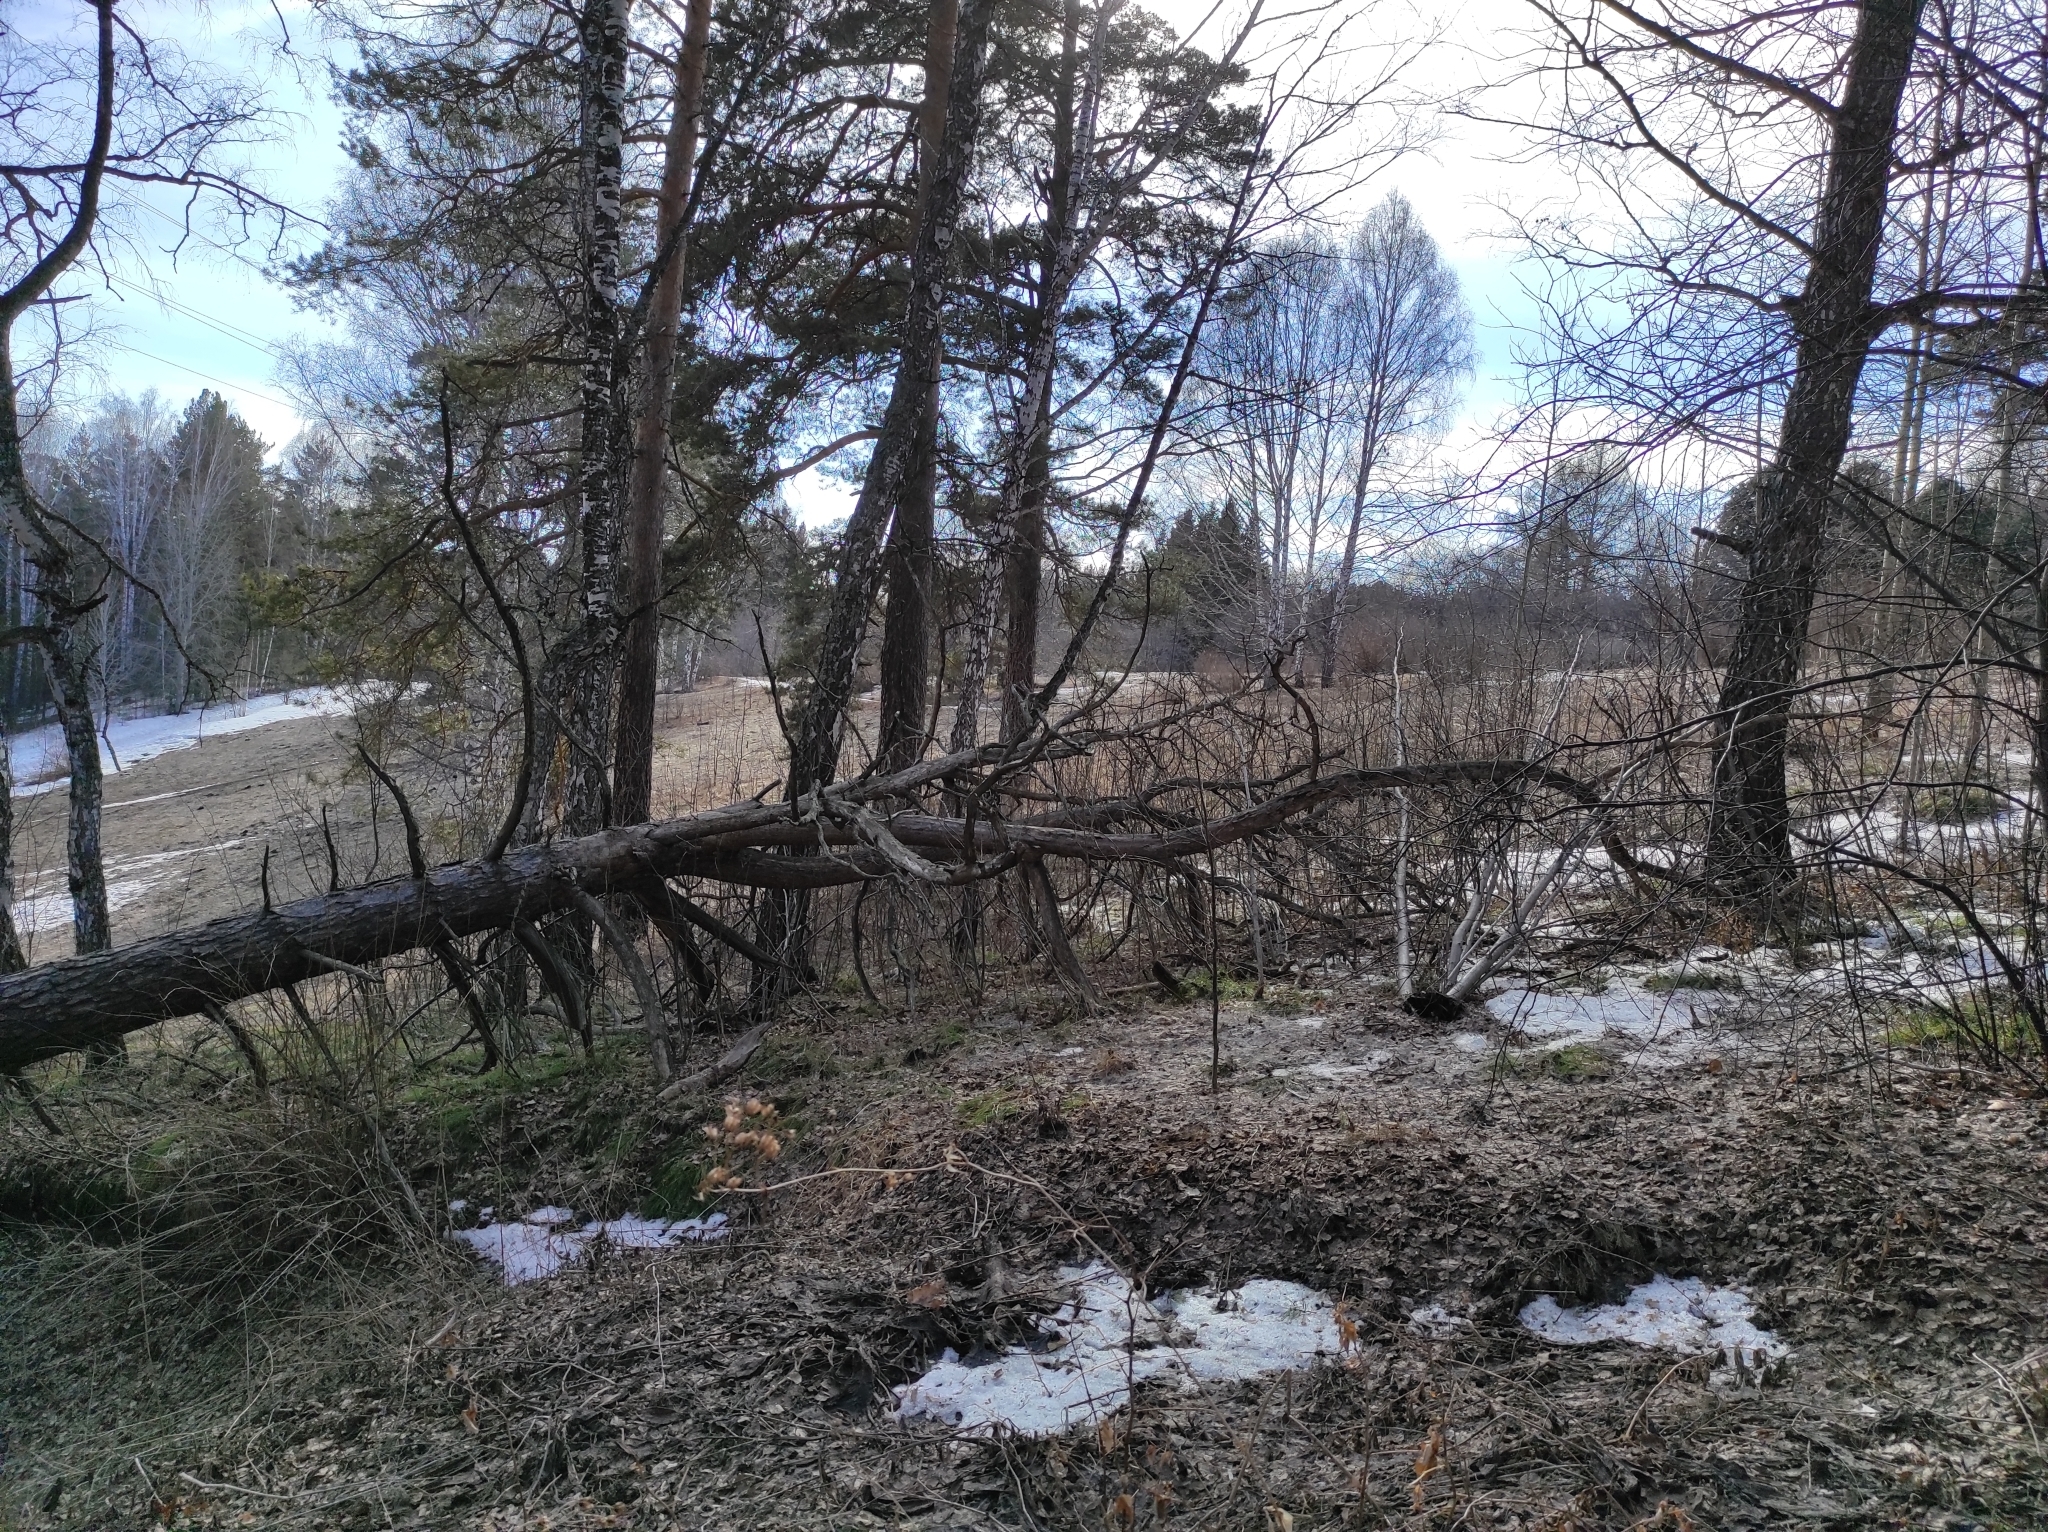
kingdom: Plantae
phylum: Tracheophyta
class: Pinopsida
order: Pinales
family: Pinaceae
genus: Pinus
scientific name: Pinus sylvestris
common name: Scots pine
